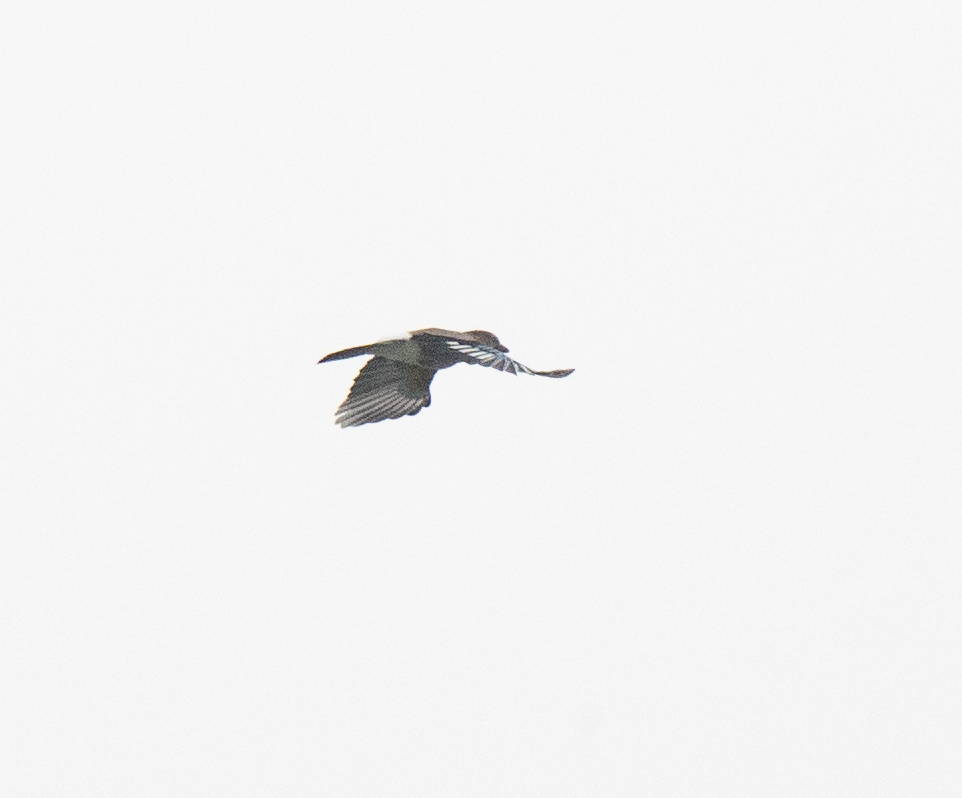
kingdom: Animalia
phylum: Chordata
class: Aves
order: Passeriformes
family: Corvidae
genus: Garrulus
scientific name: Garrulus glandarius
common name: Eurasian jay
